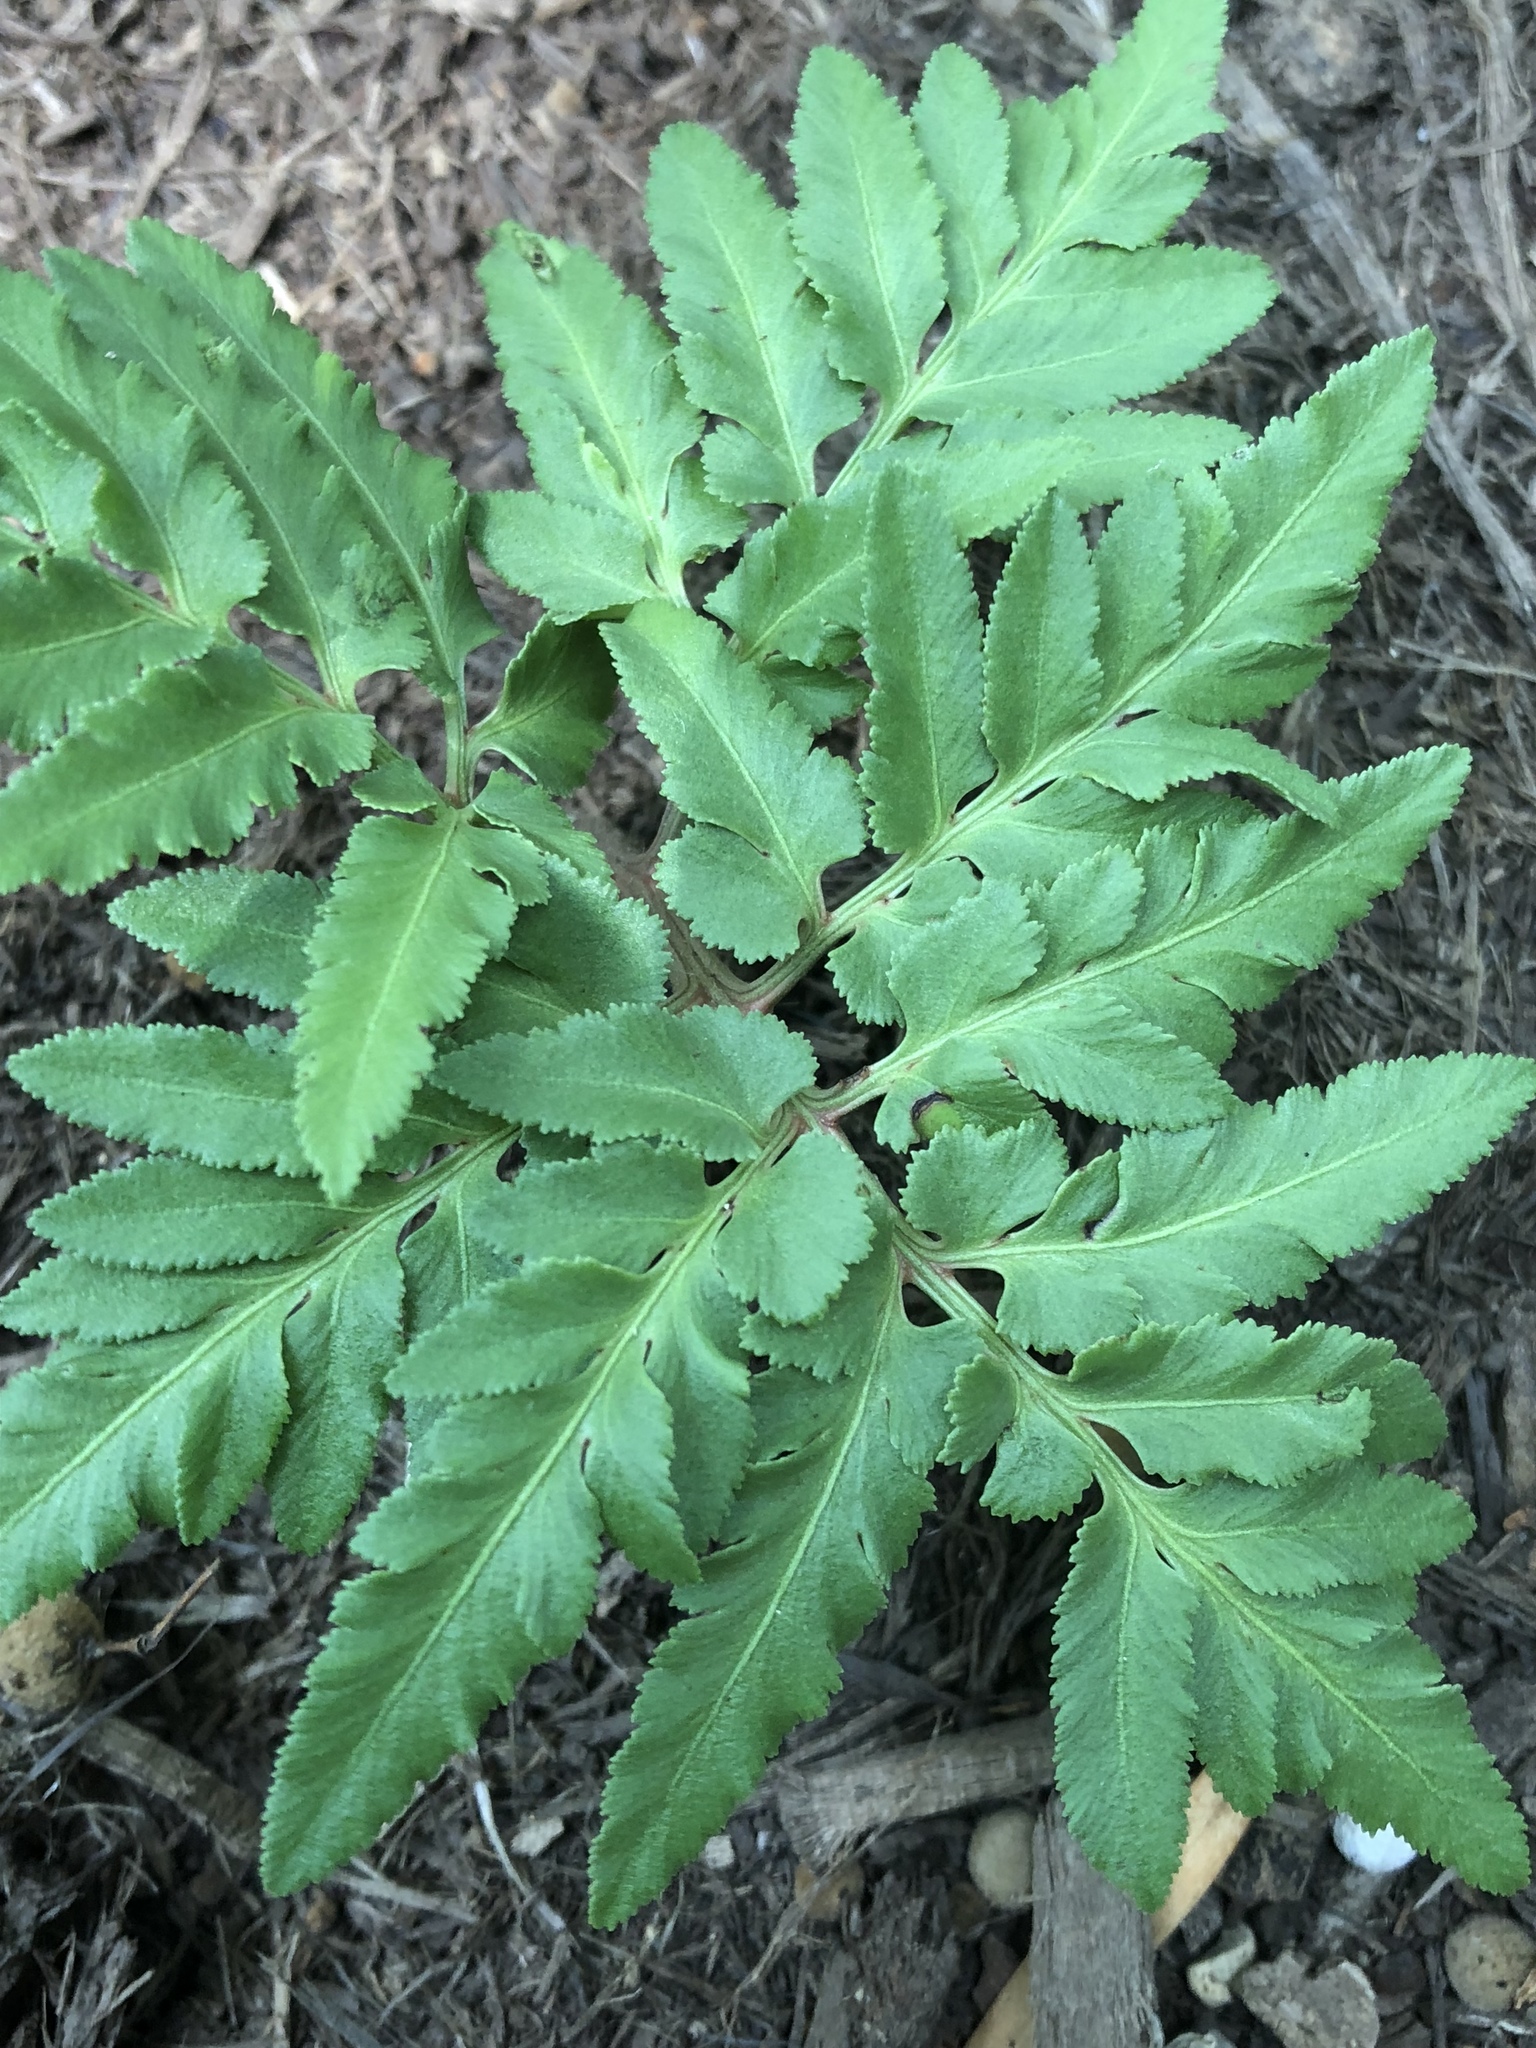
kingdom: Plantae
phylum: Tracheophyta
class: Polypodiopsida
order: Ophioglossales
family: Ophioglossaceae
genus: Sceptridium
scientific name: Sceptridium dissectum
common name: Cut-leaved grapefern
